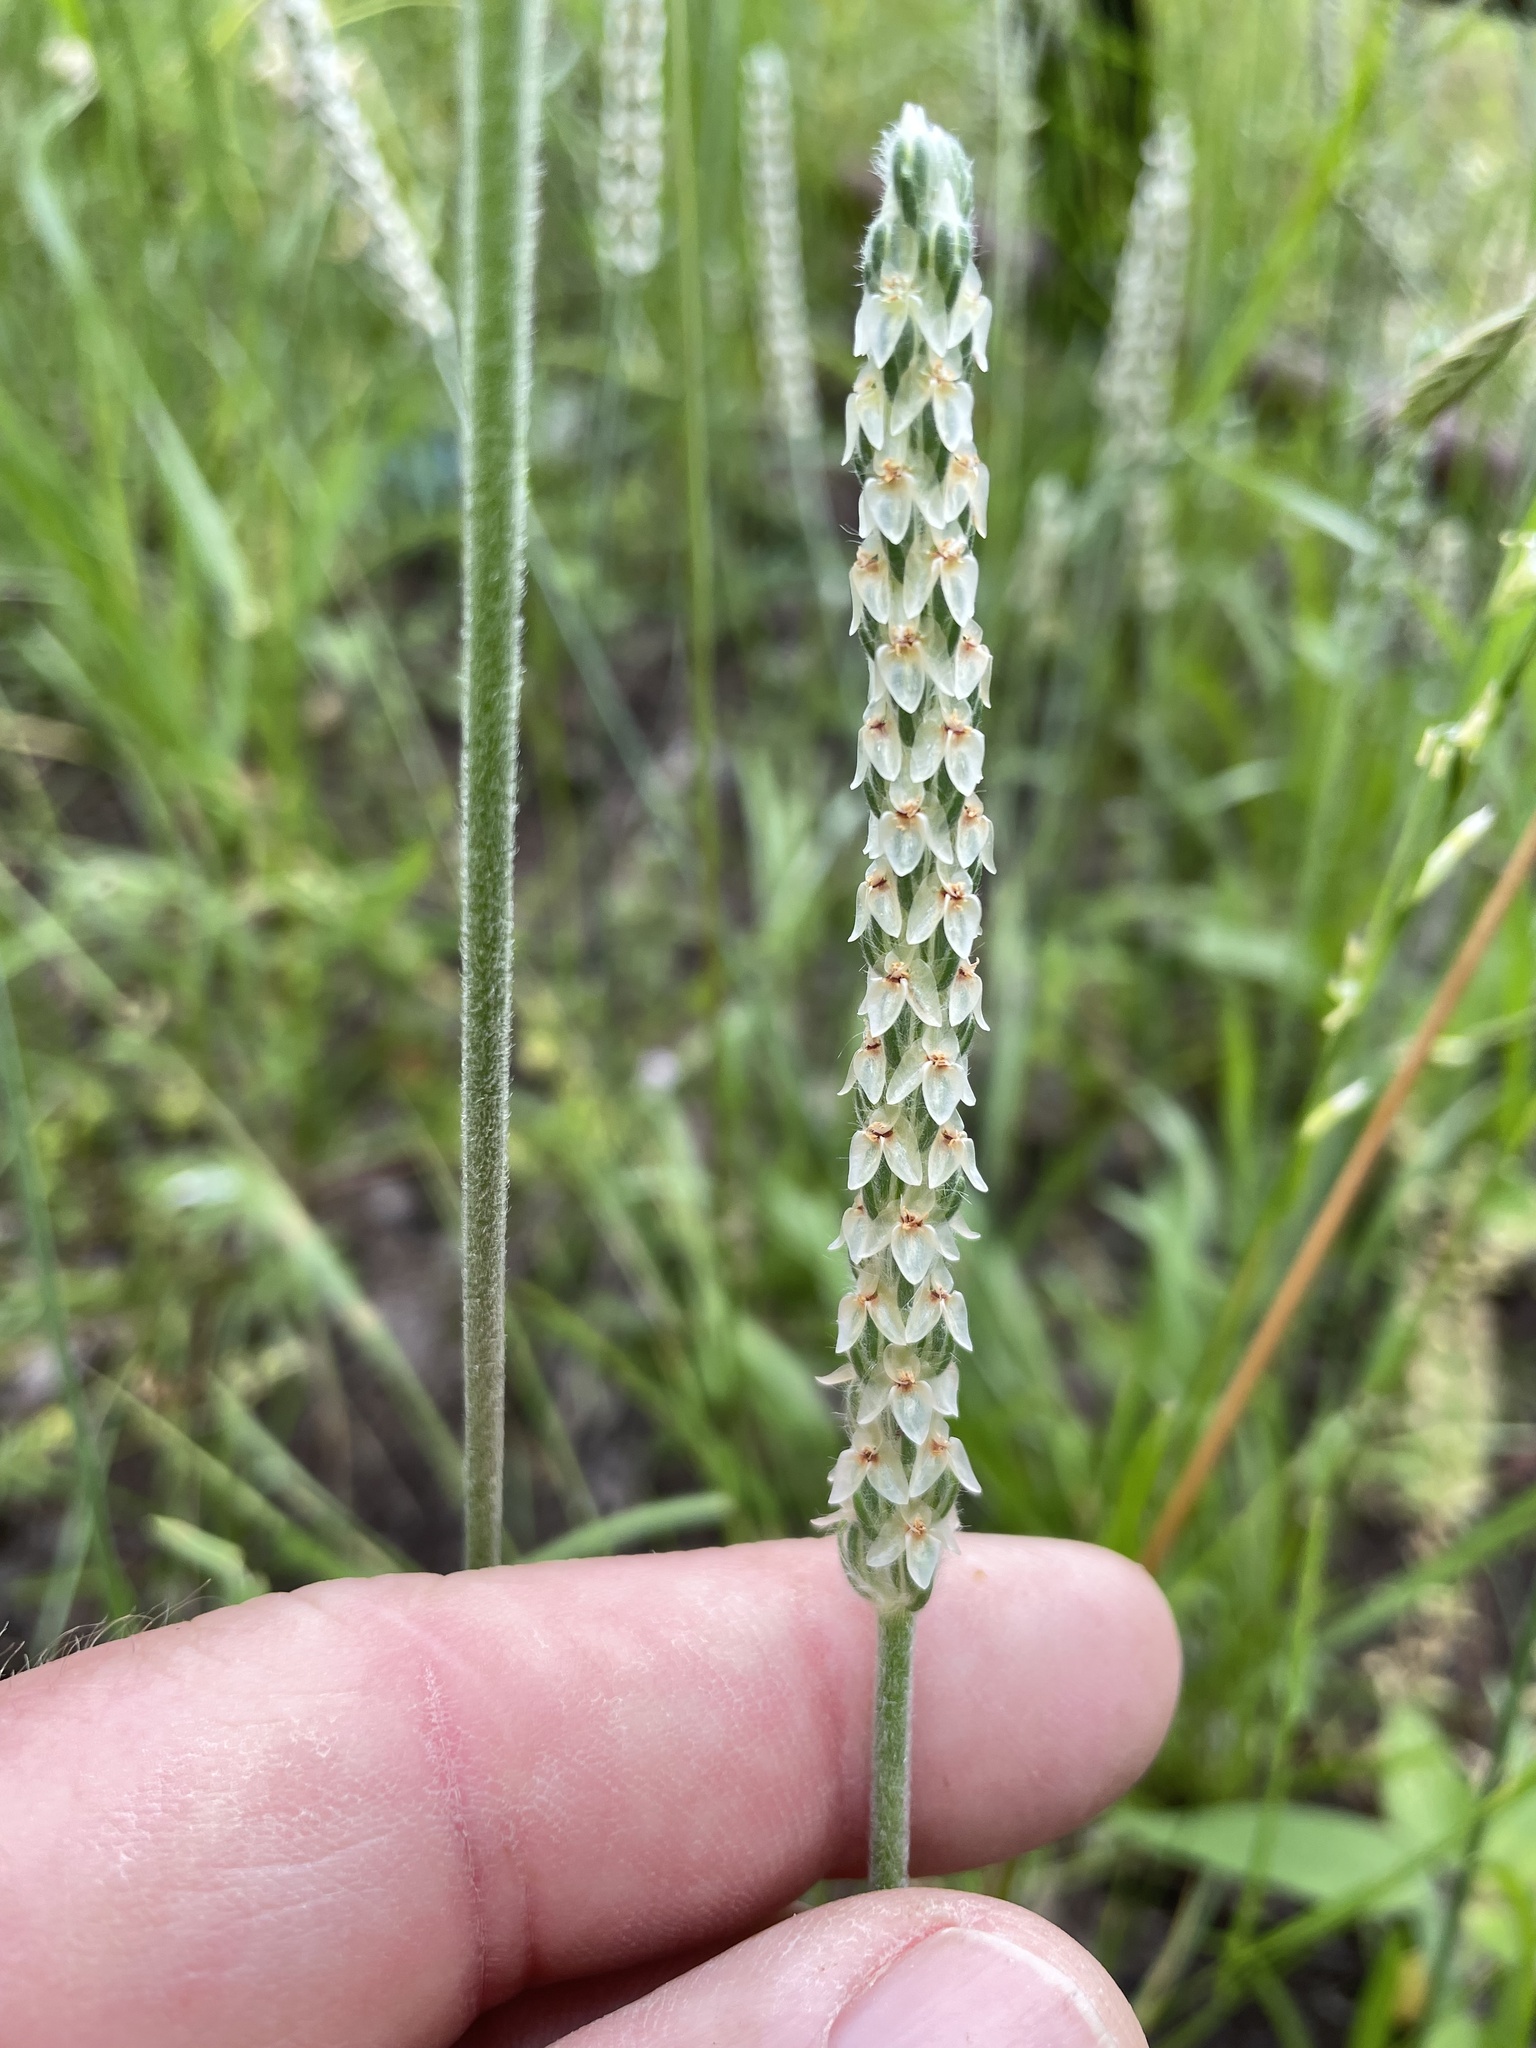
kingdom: Plantae
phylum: Tracheophyta
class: Magnoliopsida
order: Lamiales
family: Plantaginaceae
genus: Plantago
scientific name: Plantago wrightiana
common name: Wright's plantain
